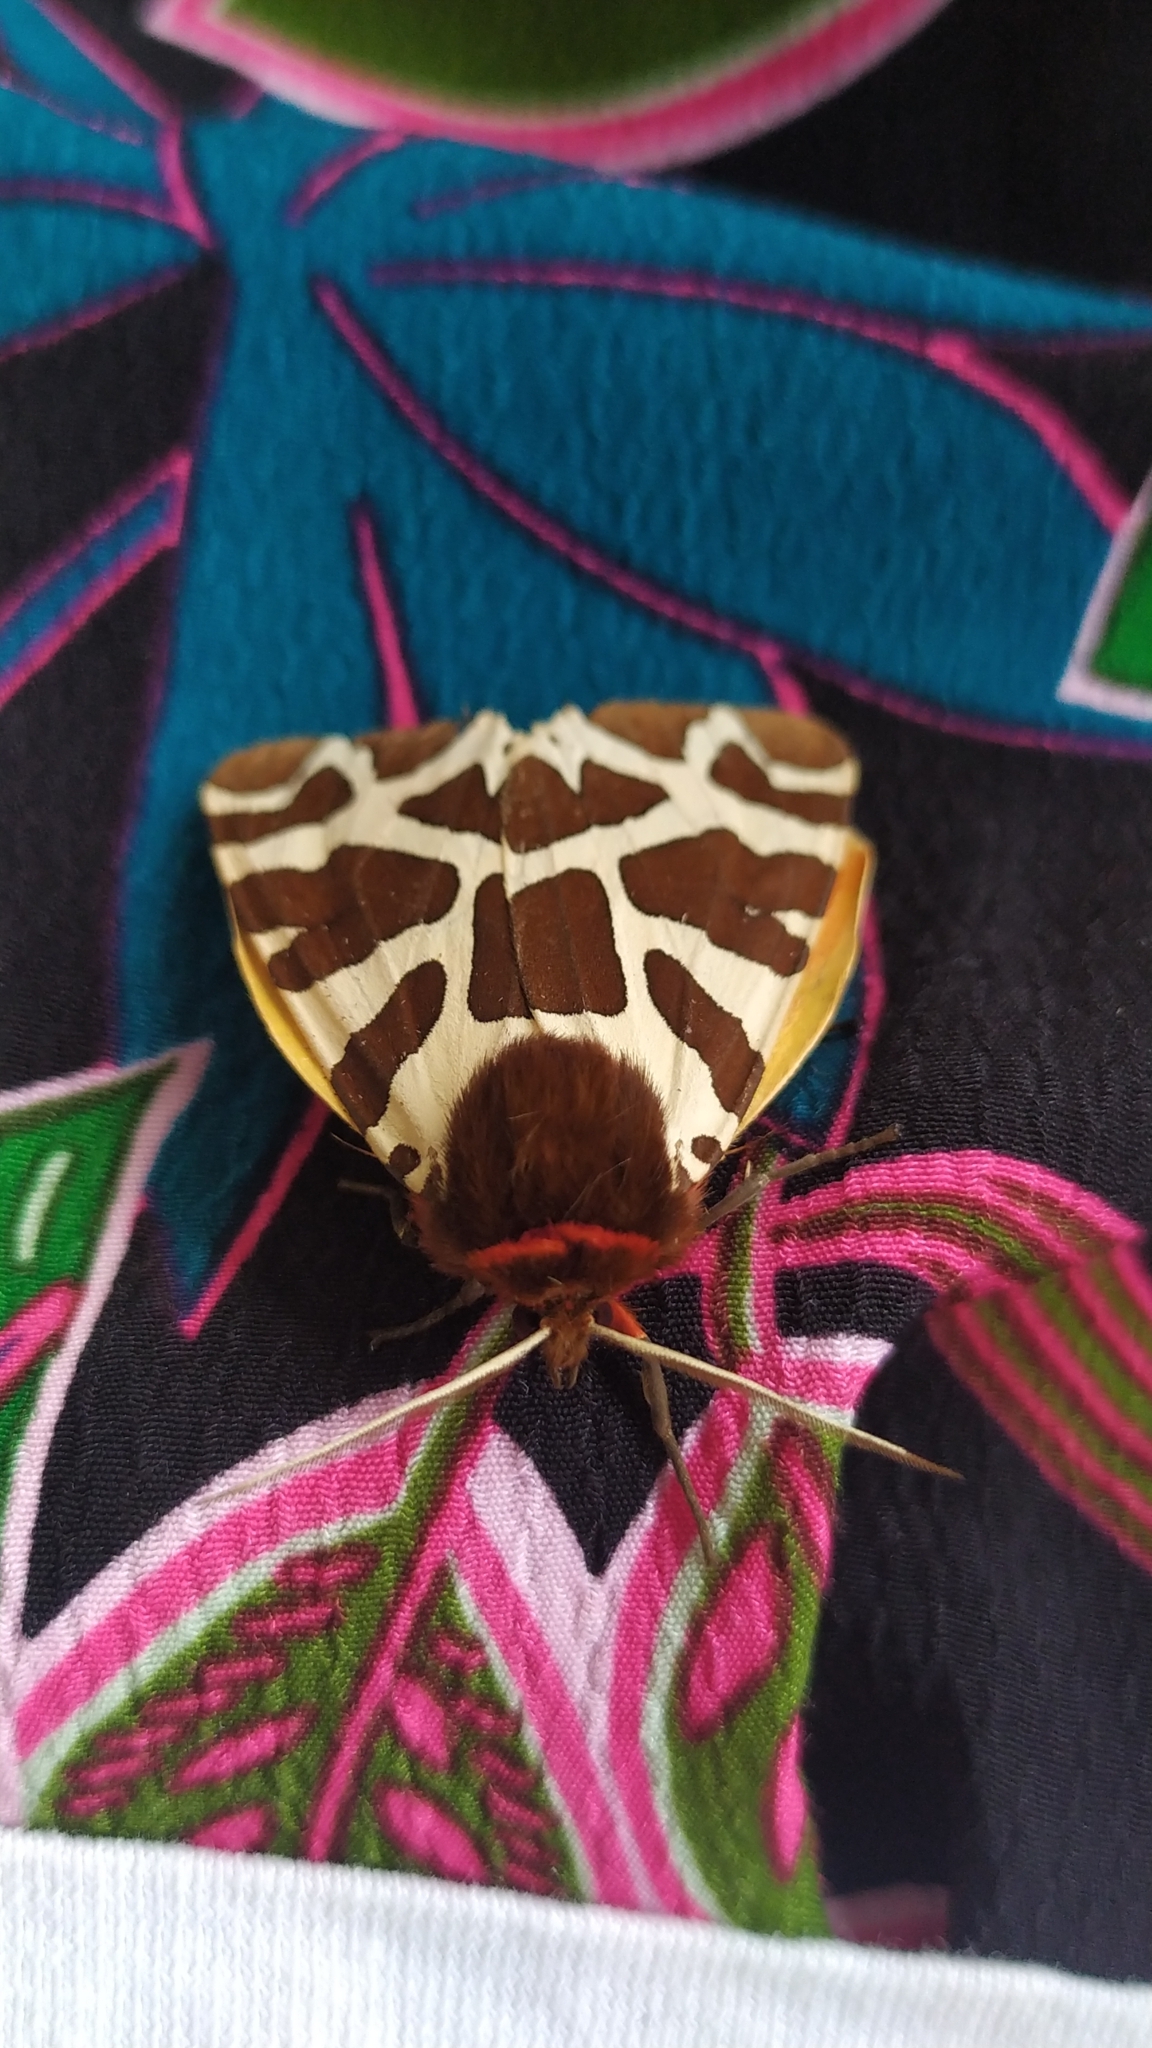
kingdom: Animalia
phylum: Arthropoda
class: Insecta
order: Lepidoptera
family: Erebidae
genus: Arctia
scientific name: Arctia caja
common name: Garden tiger
